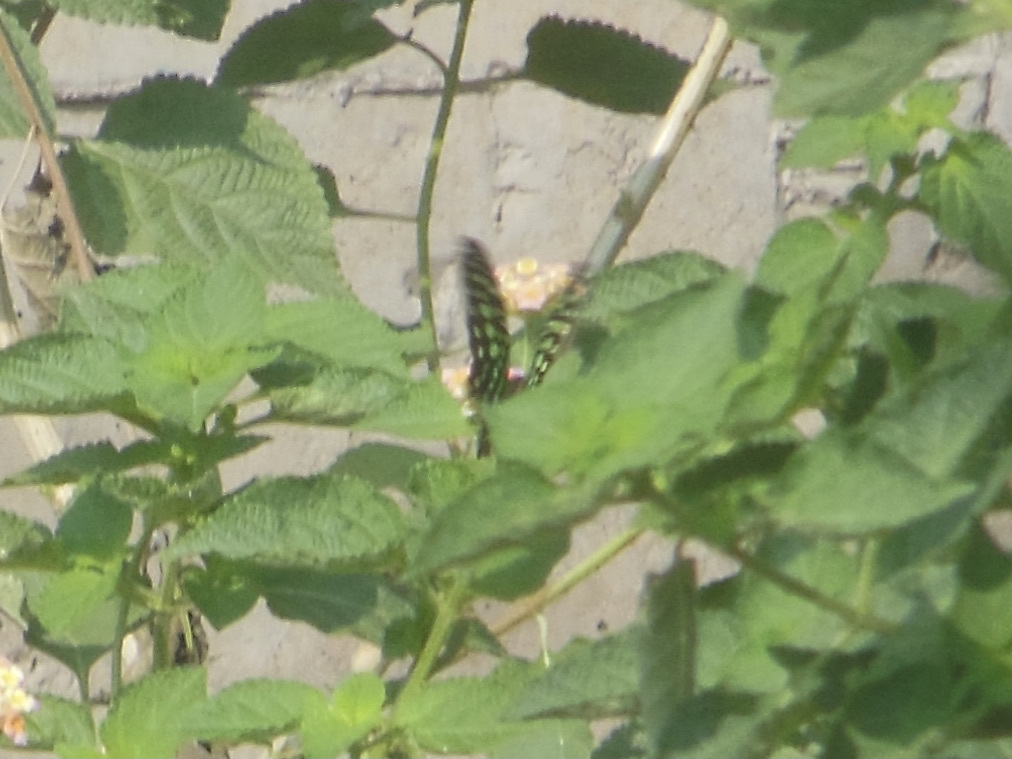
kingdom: Animalia
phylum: Arthropoda
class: Insecta
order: Lepidoptera
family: Papilionidae
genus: Graphium
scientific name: Graphium agamemnon
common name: Tailed jay
